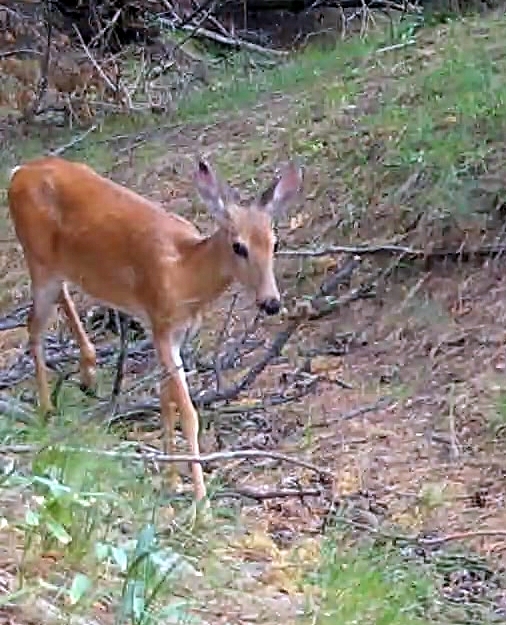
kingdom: Animalia
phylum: Chordata
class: Mammalia
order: Artiodactyla
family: Cervidae
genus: Odocoileus
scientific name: Odocoileus virginianus
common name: White-tailed deer
